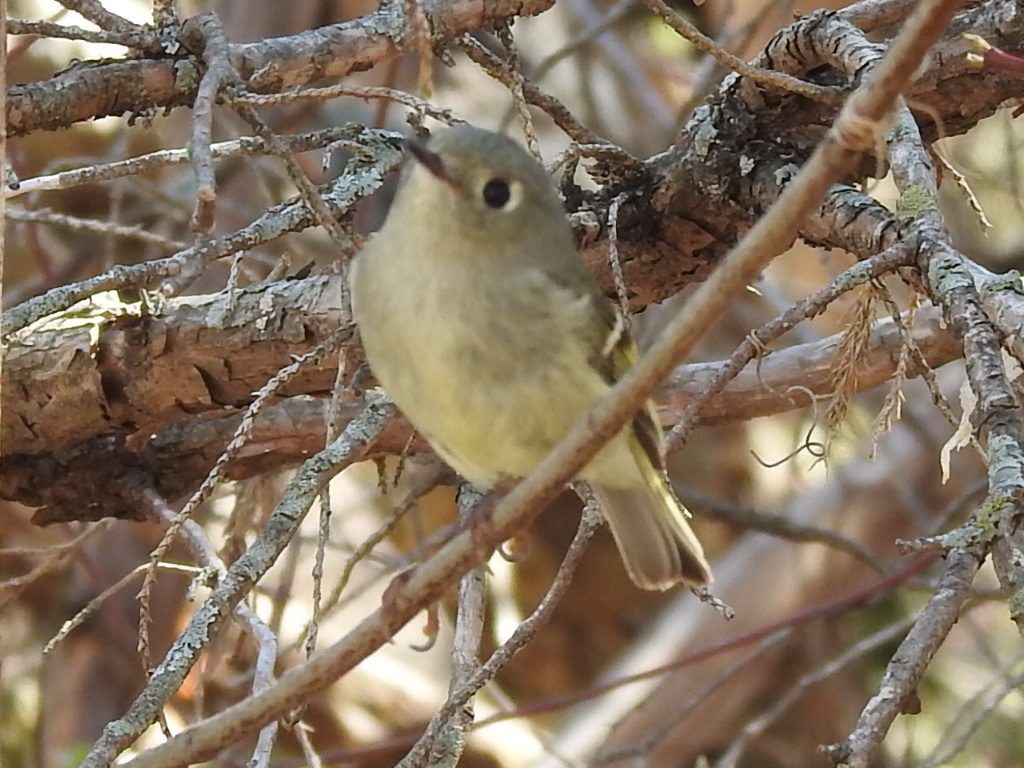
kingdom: Animalia
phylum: Chordata
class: Aves
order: Passeriformes
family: Regulidae
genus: Regulus
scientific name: Regulus calendula
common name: Ruby-crowned kinglet
